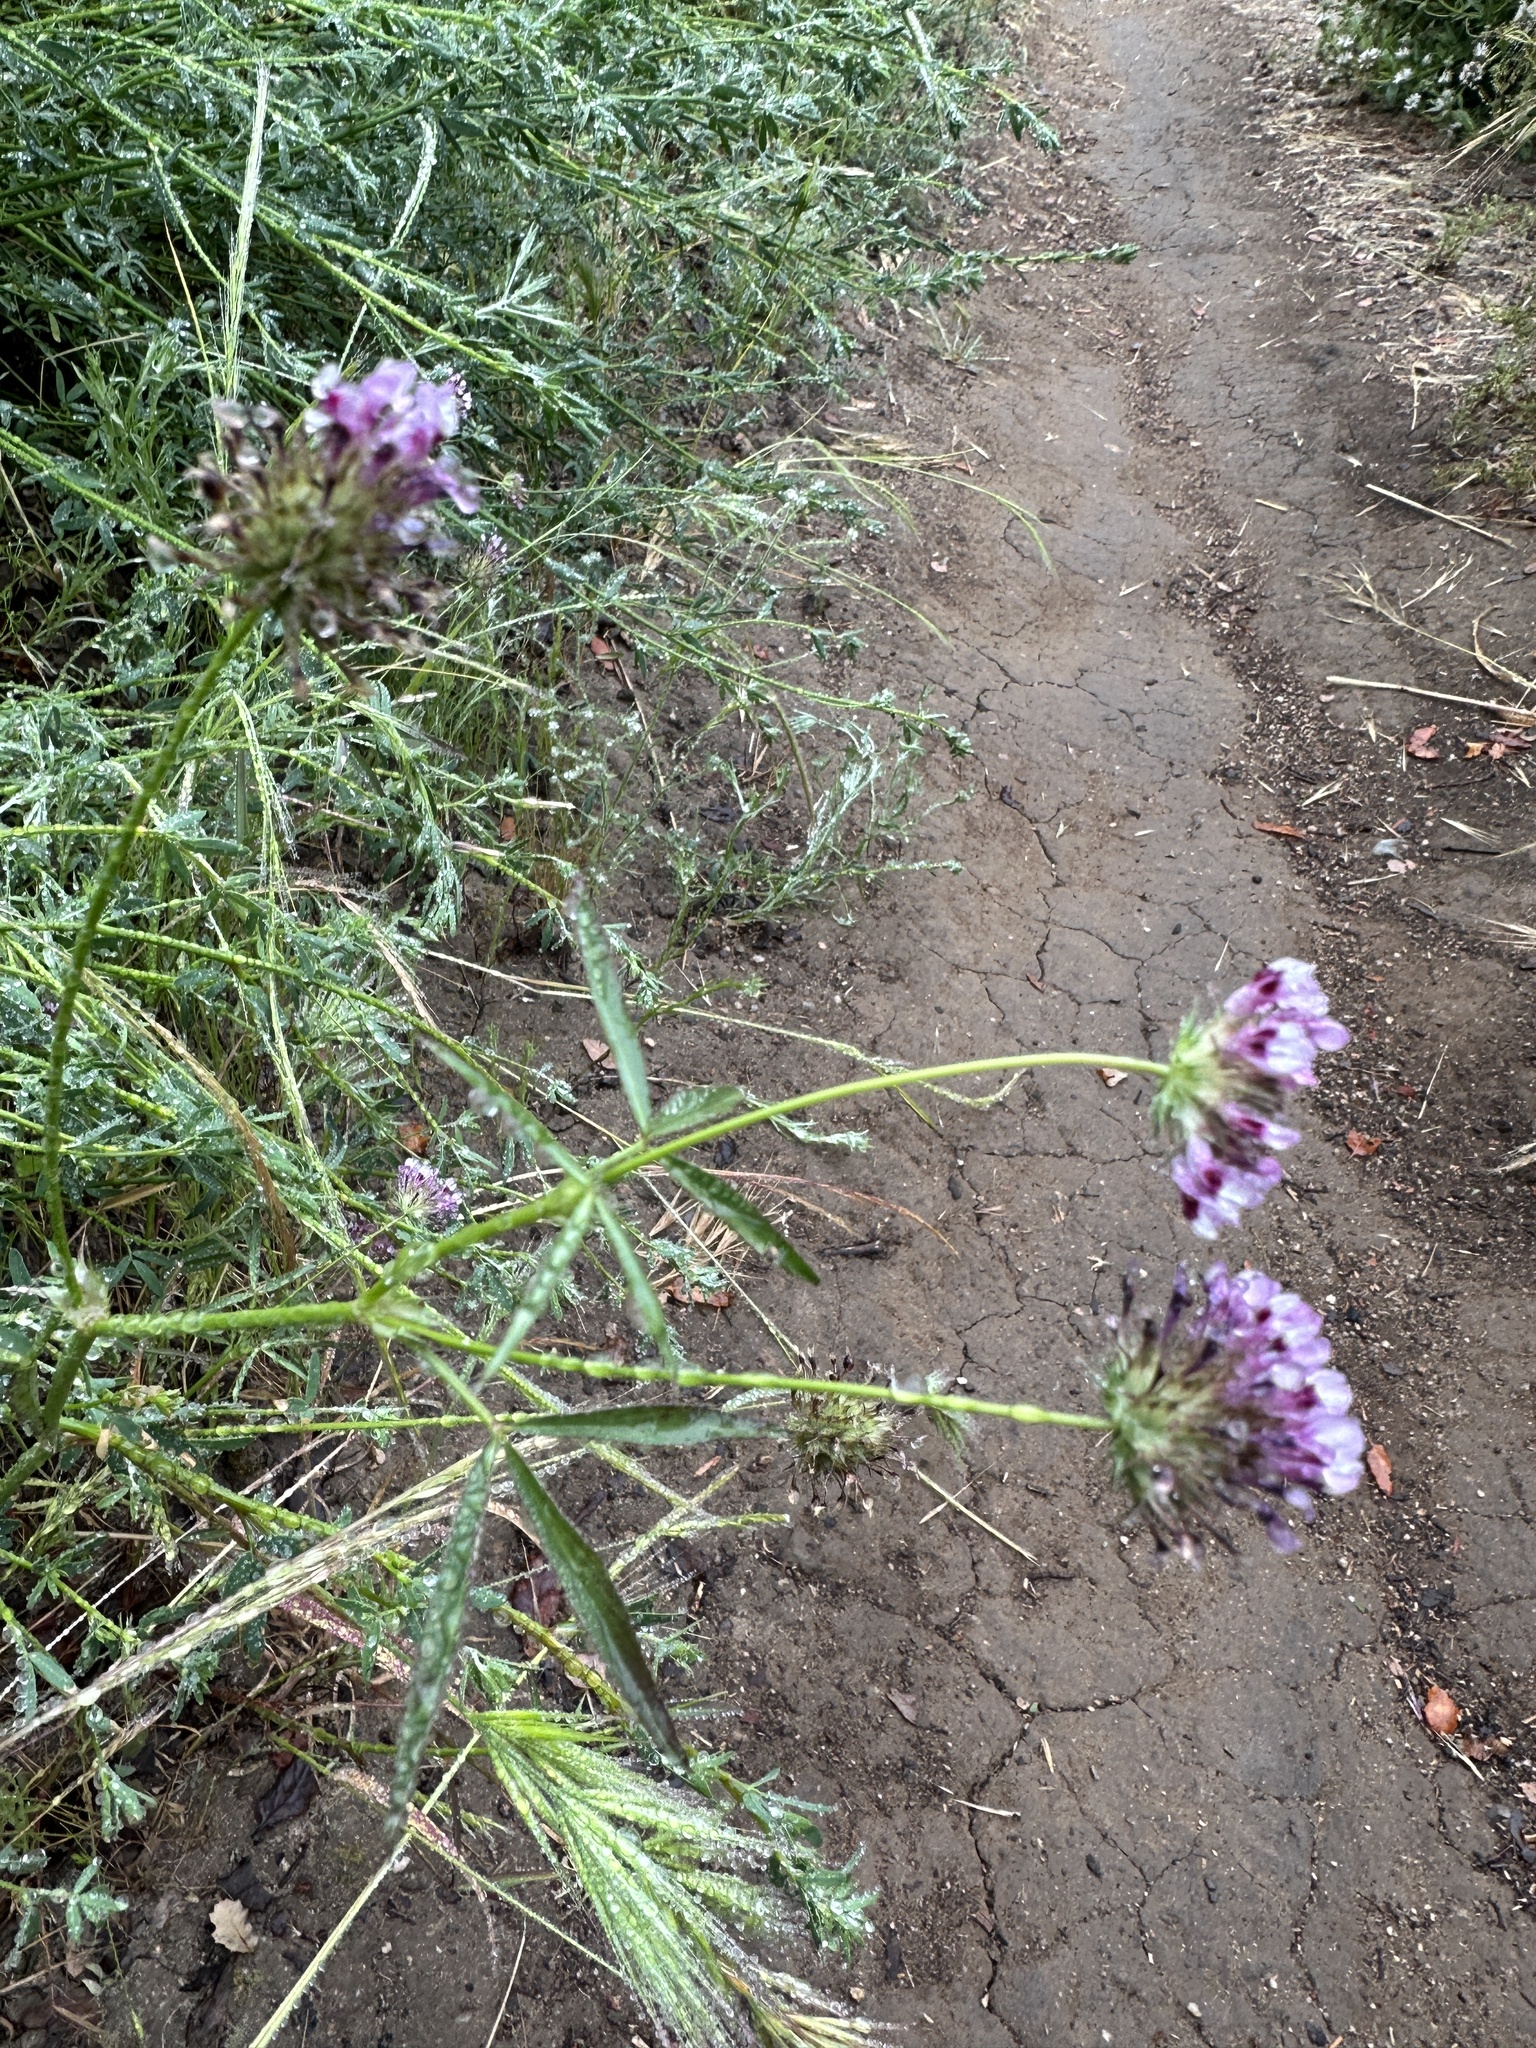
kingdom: Plantae
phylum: Tracheophyta
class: Magnoliopsida
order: Fabales
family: Fabaceae
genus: Trifolium
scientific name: Trifolium willdenovii
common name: Tomcat clover
